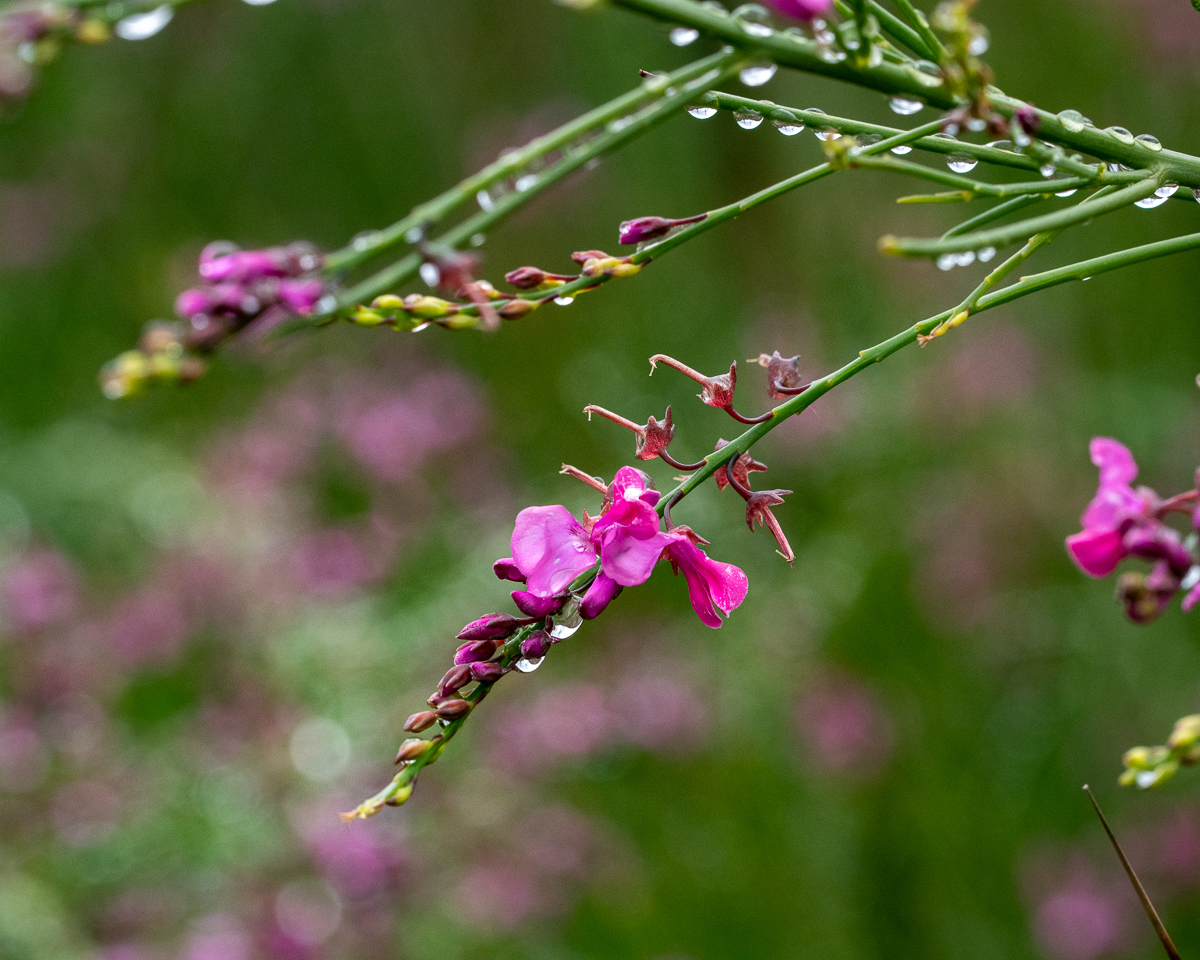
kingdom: Plantae
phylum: Tracheophyta
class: Magnoliopsida
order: Fabales
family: Fabaceae
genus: Indigofera
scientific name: Indigofera filifolia
